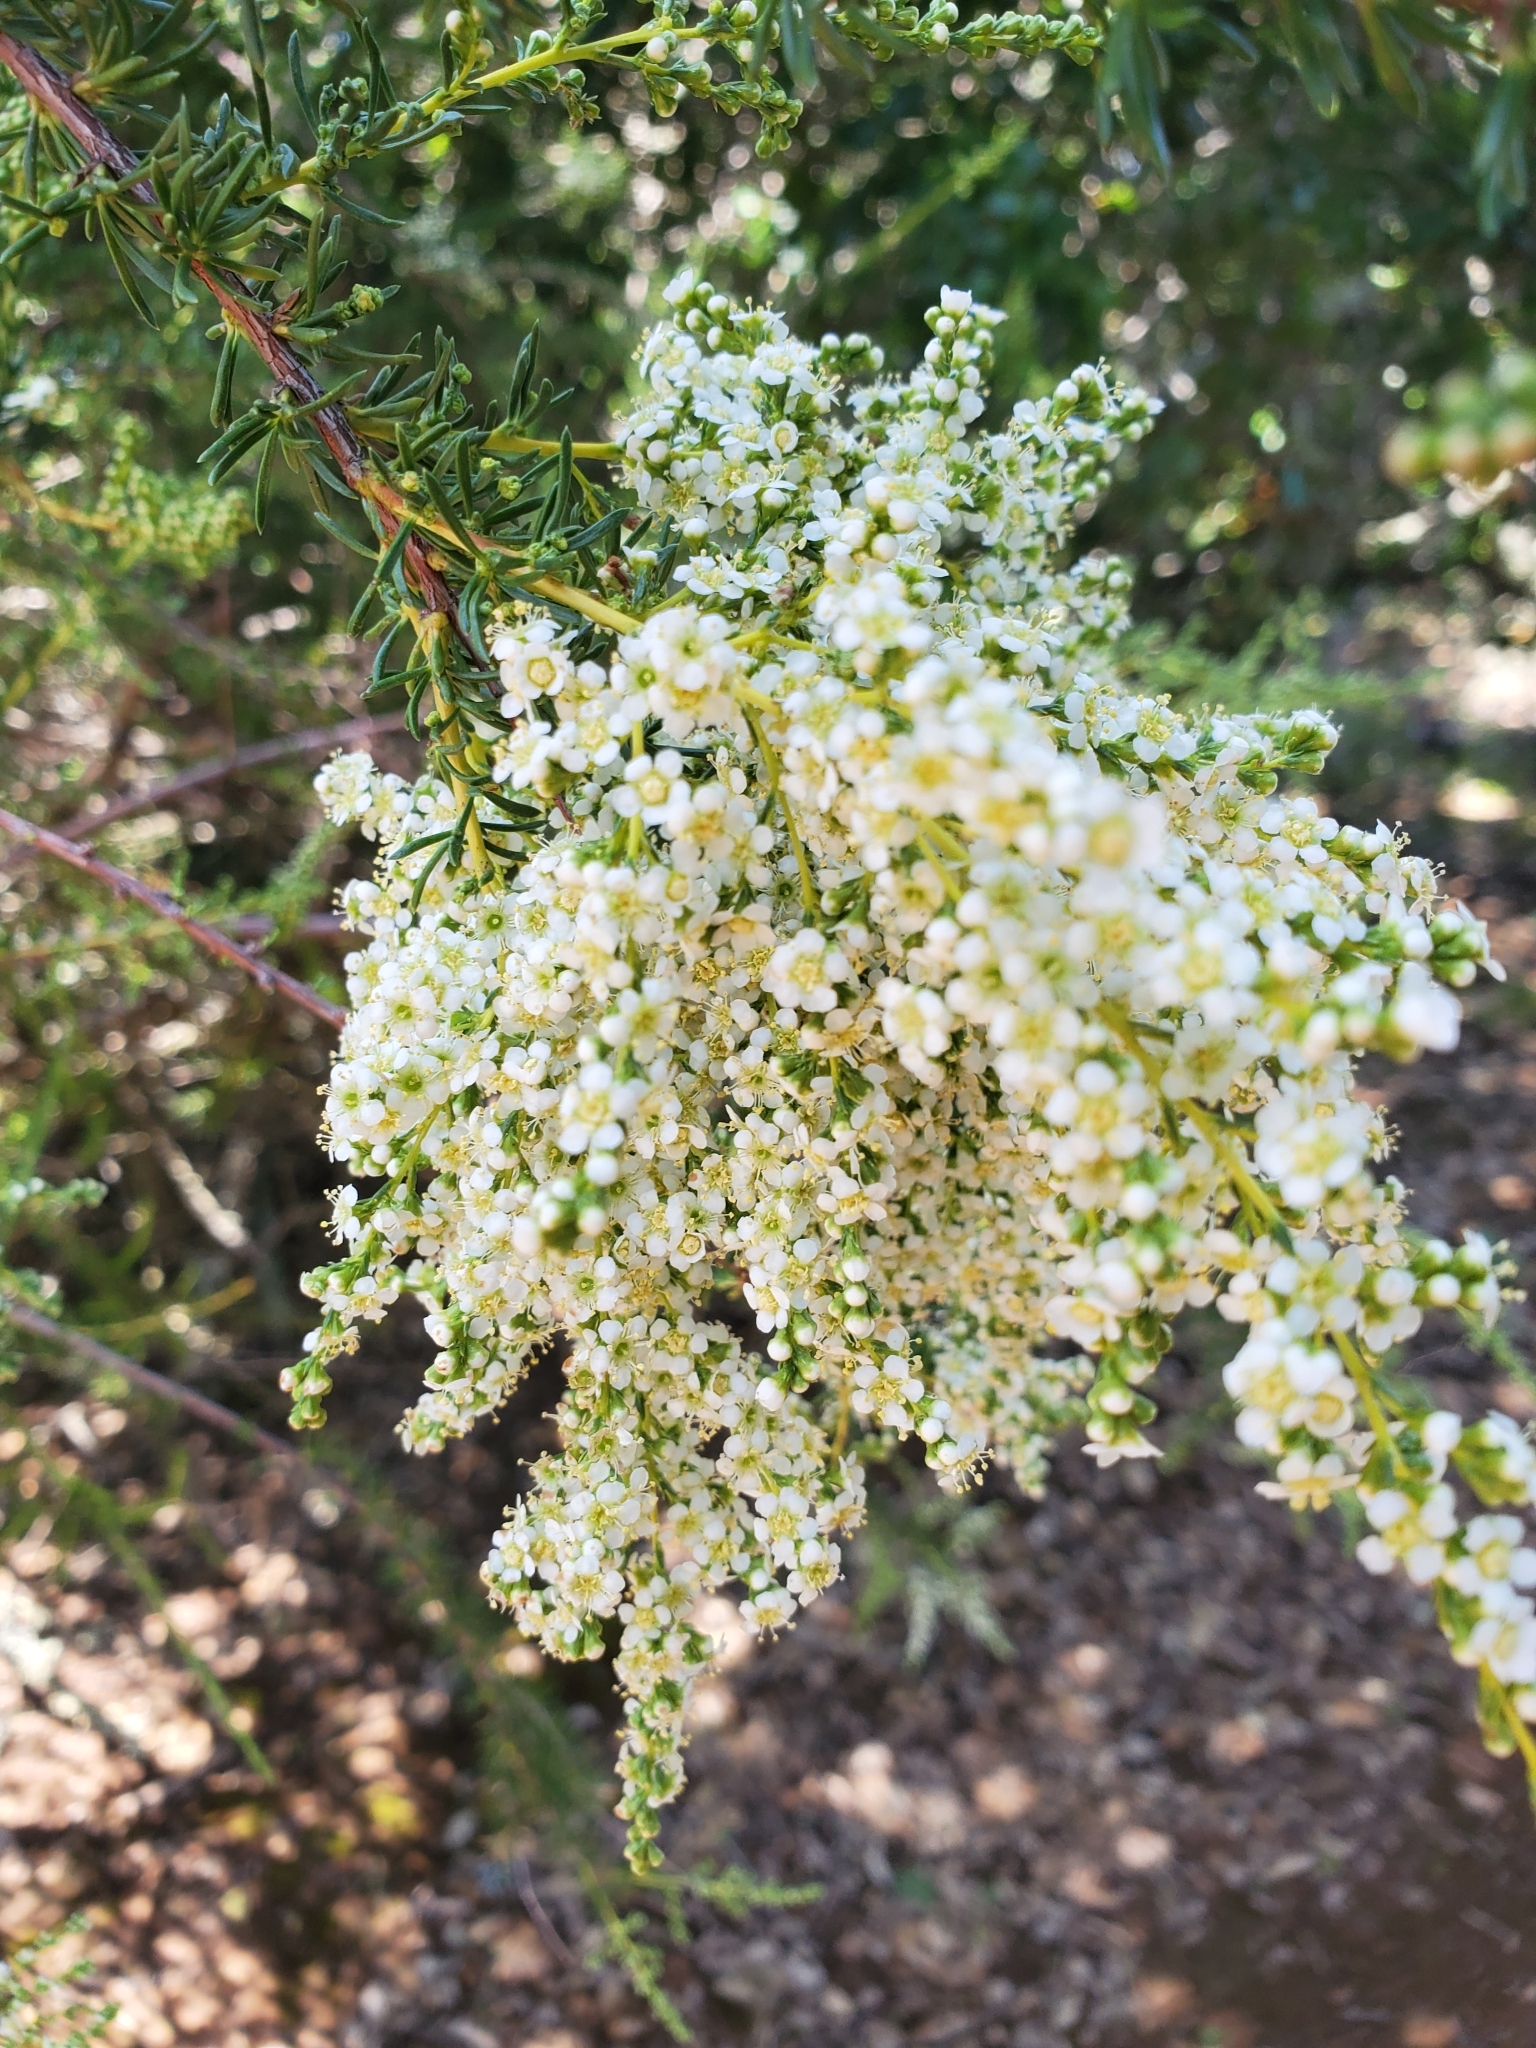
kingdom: Plantae
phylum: Tracheophyta
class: Magnoliopsida
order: Rosales
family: Rosaceae
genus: Adenostoma
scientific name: Adenostoma fasciculatum
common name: Chamise
